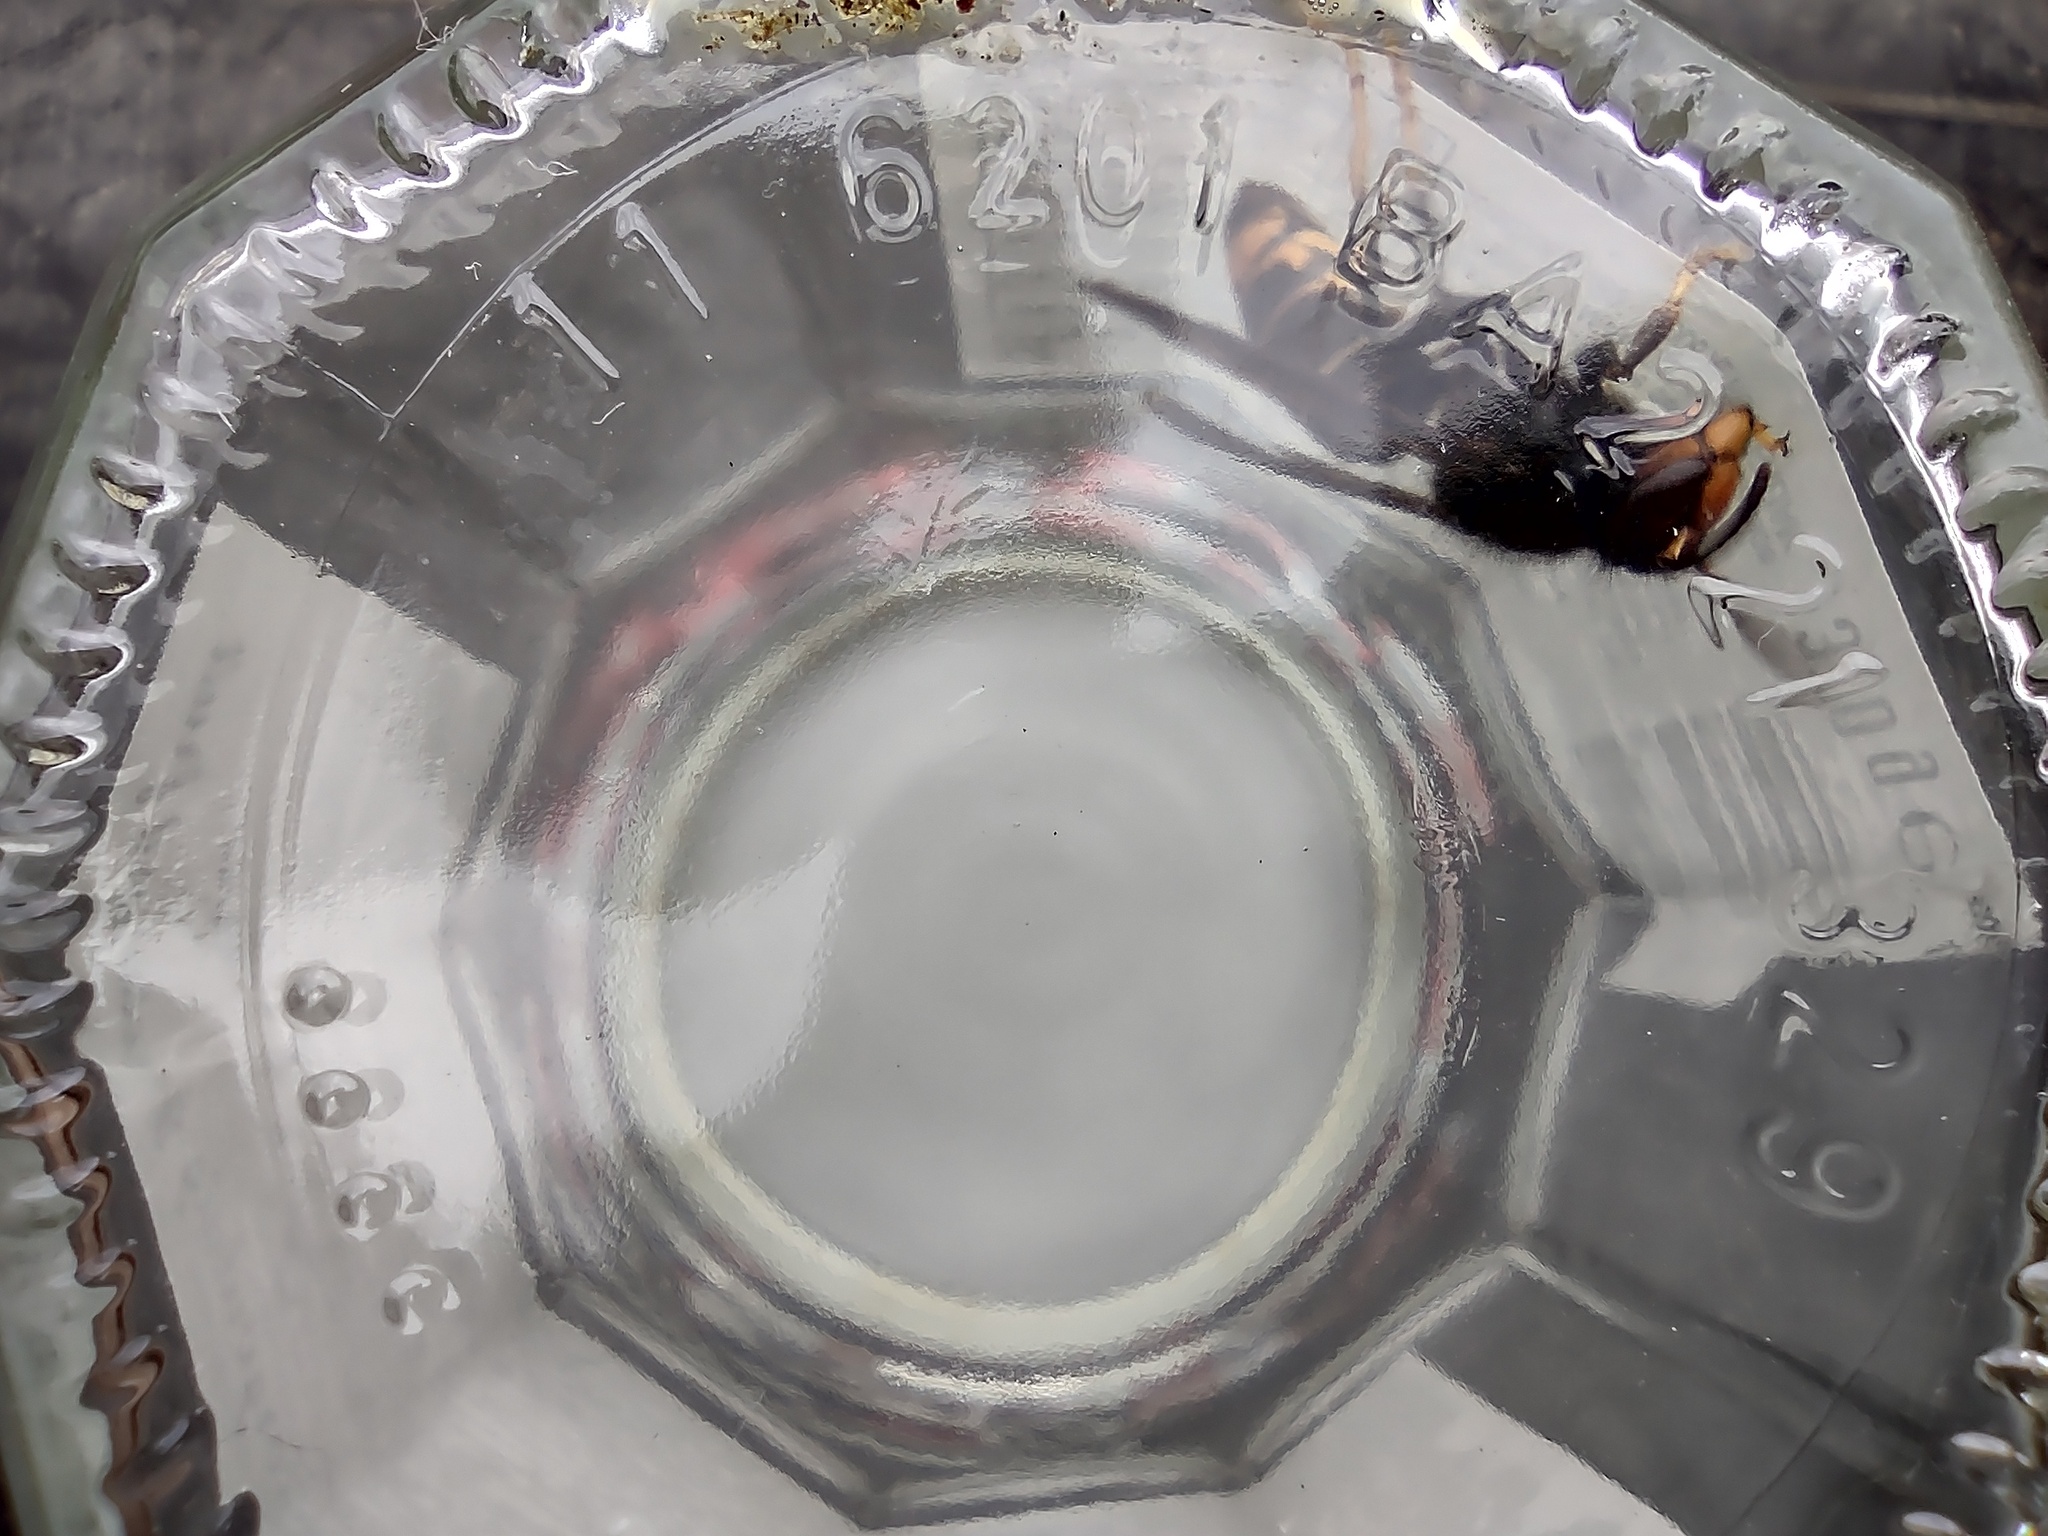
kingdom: Animalia
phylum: Arthropoda
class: Insecta
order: Hymenoptera
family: Vespidae
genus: Vespa
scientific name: Vespa velutina
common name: Asian hornet
